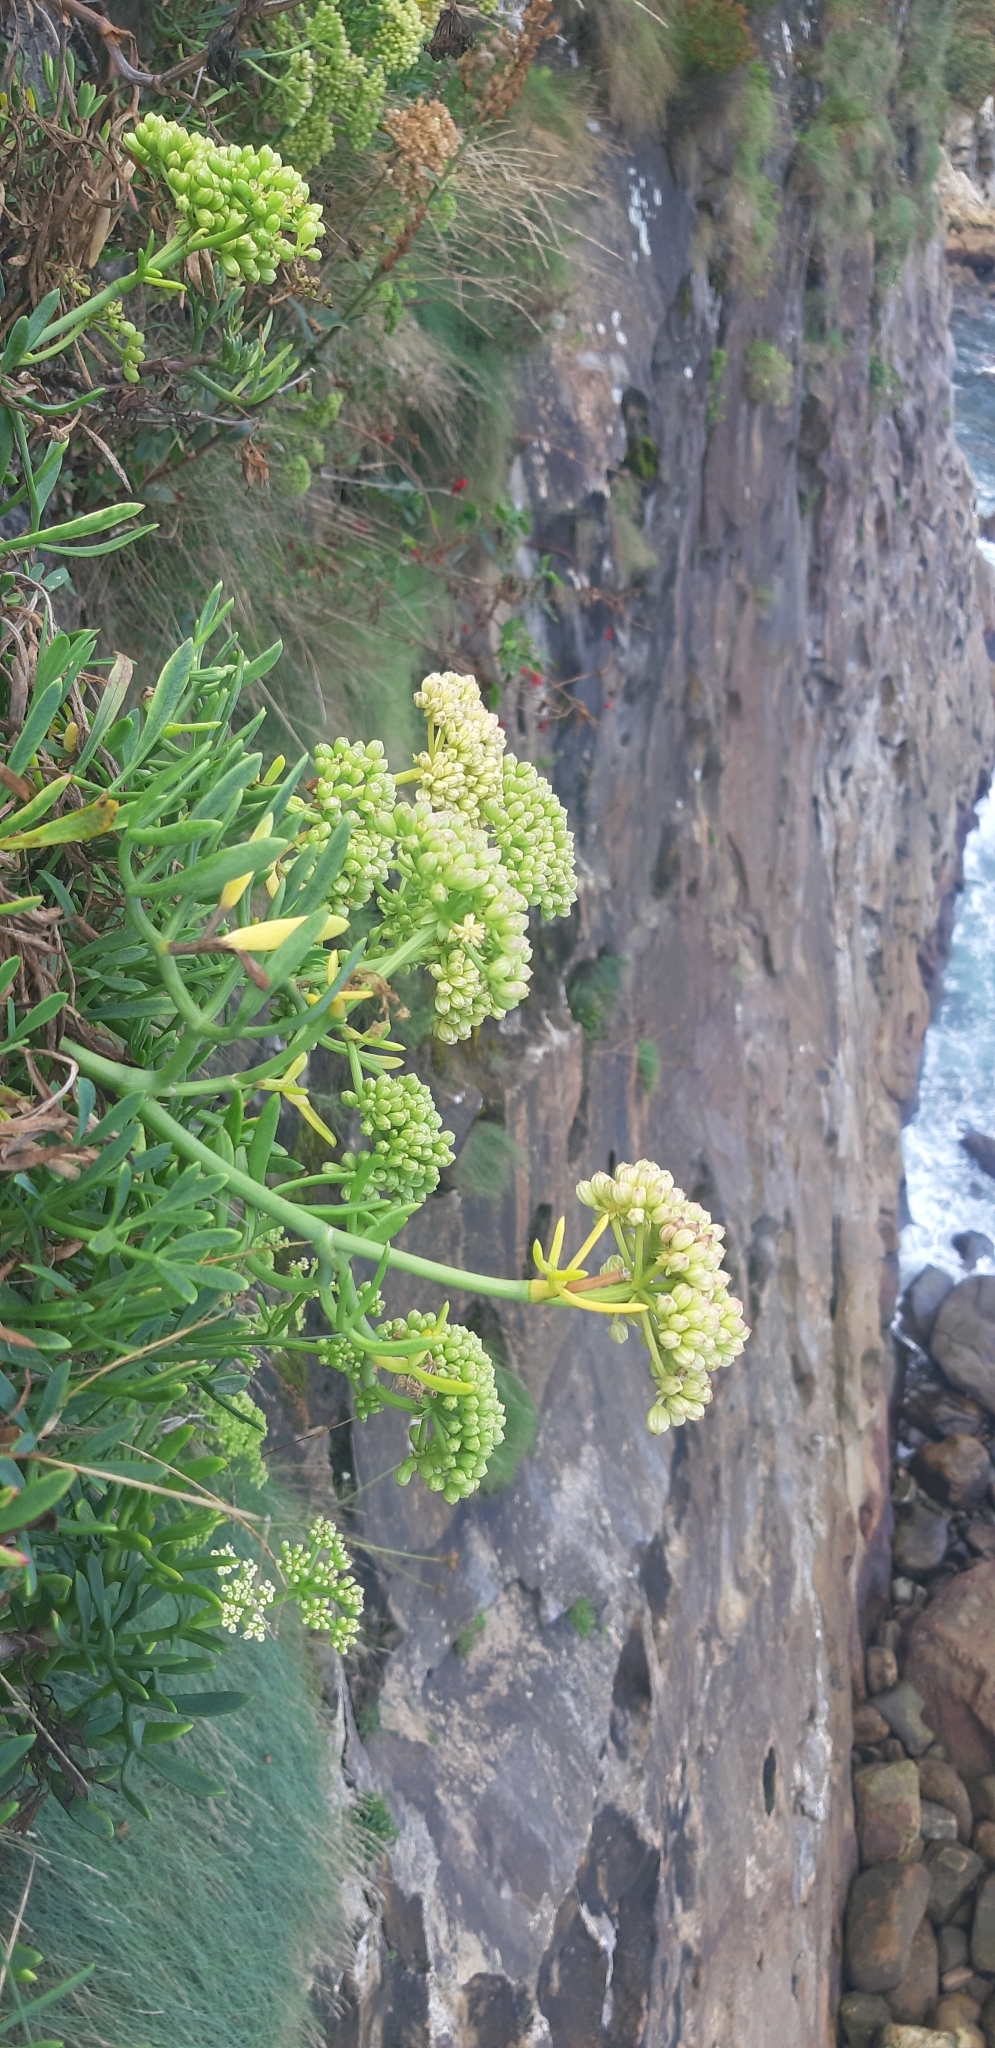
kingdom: Plantae
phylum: Tracheophyta
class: Magnoliopsida
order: Apiales
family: Apiaceae
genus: Crithmum
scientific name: Crithmum maritimum
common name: Rock samphire
